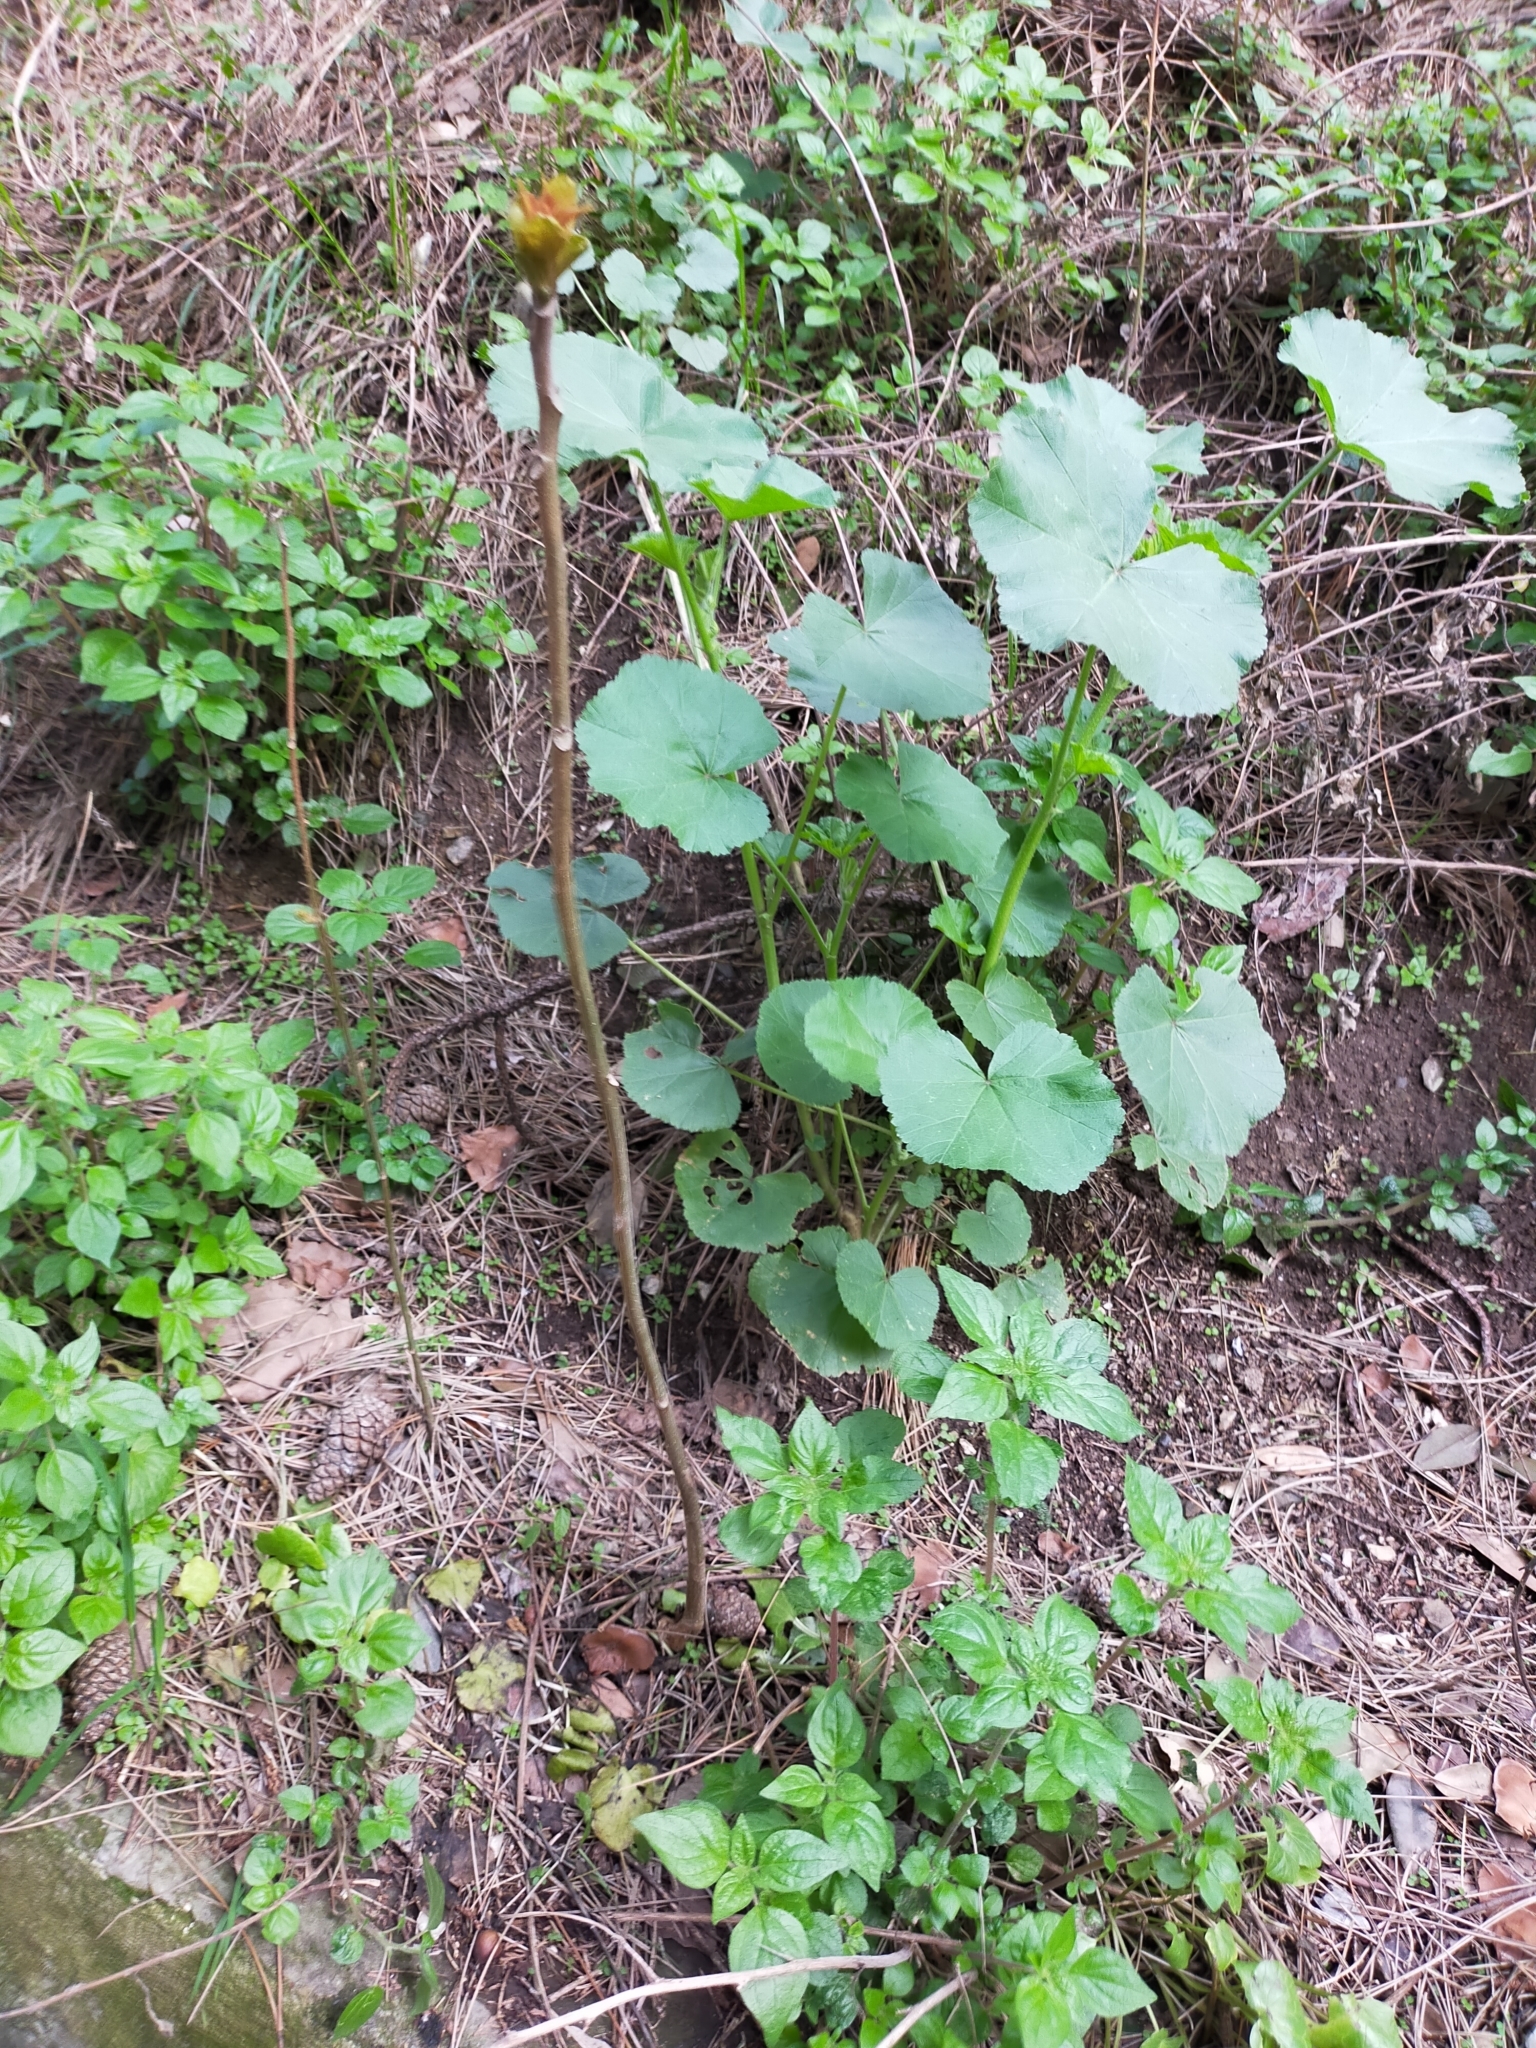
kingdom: Plantae
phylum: Tracheophyta
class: Magnoliopsida
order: Asterales
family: Asteraceae
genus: Tussilago
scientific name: Tussilago farfara
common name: Coltsfoot
